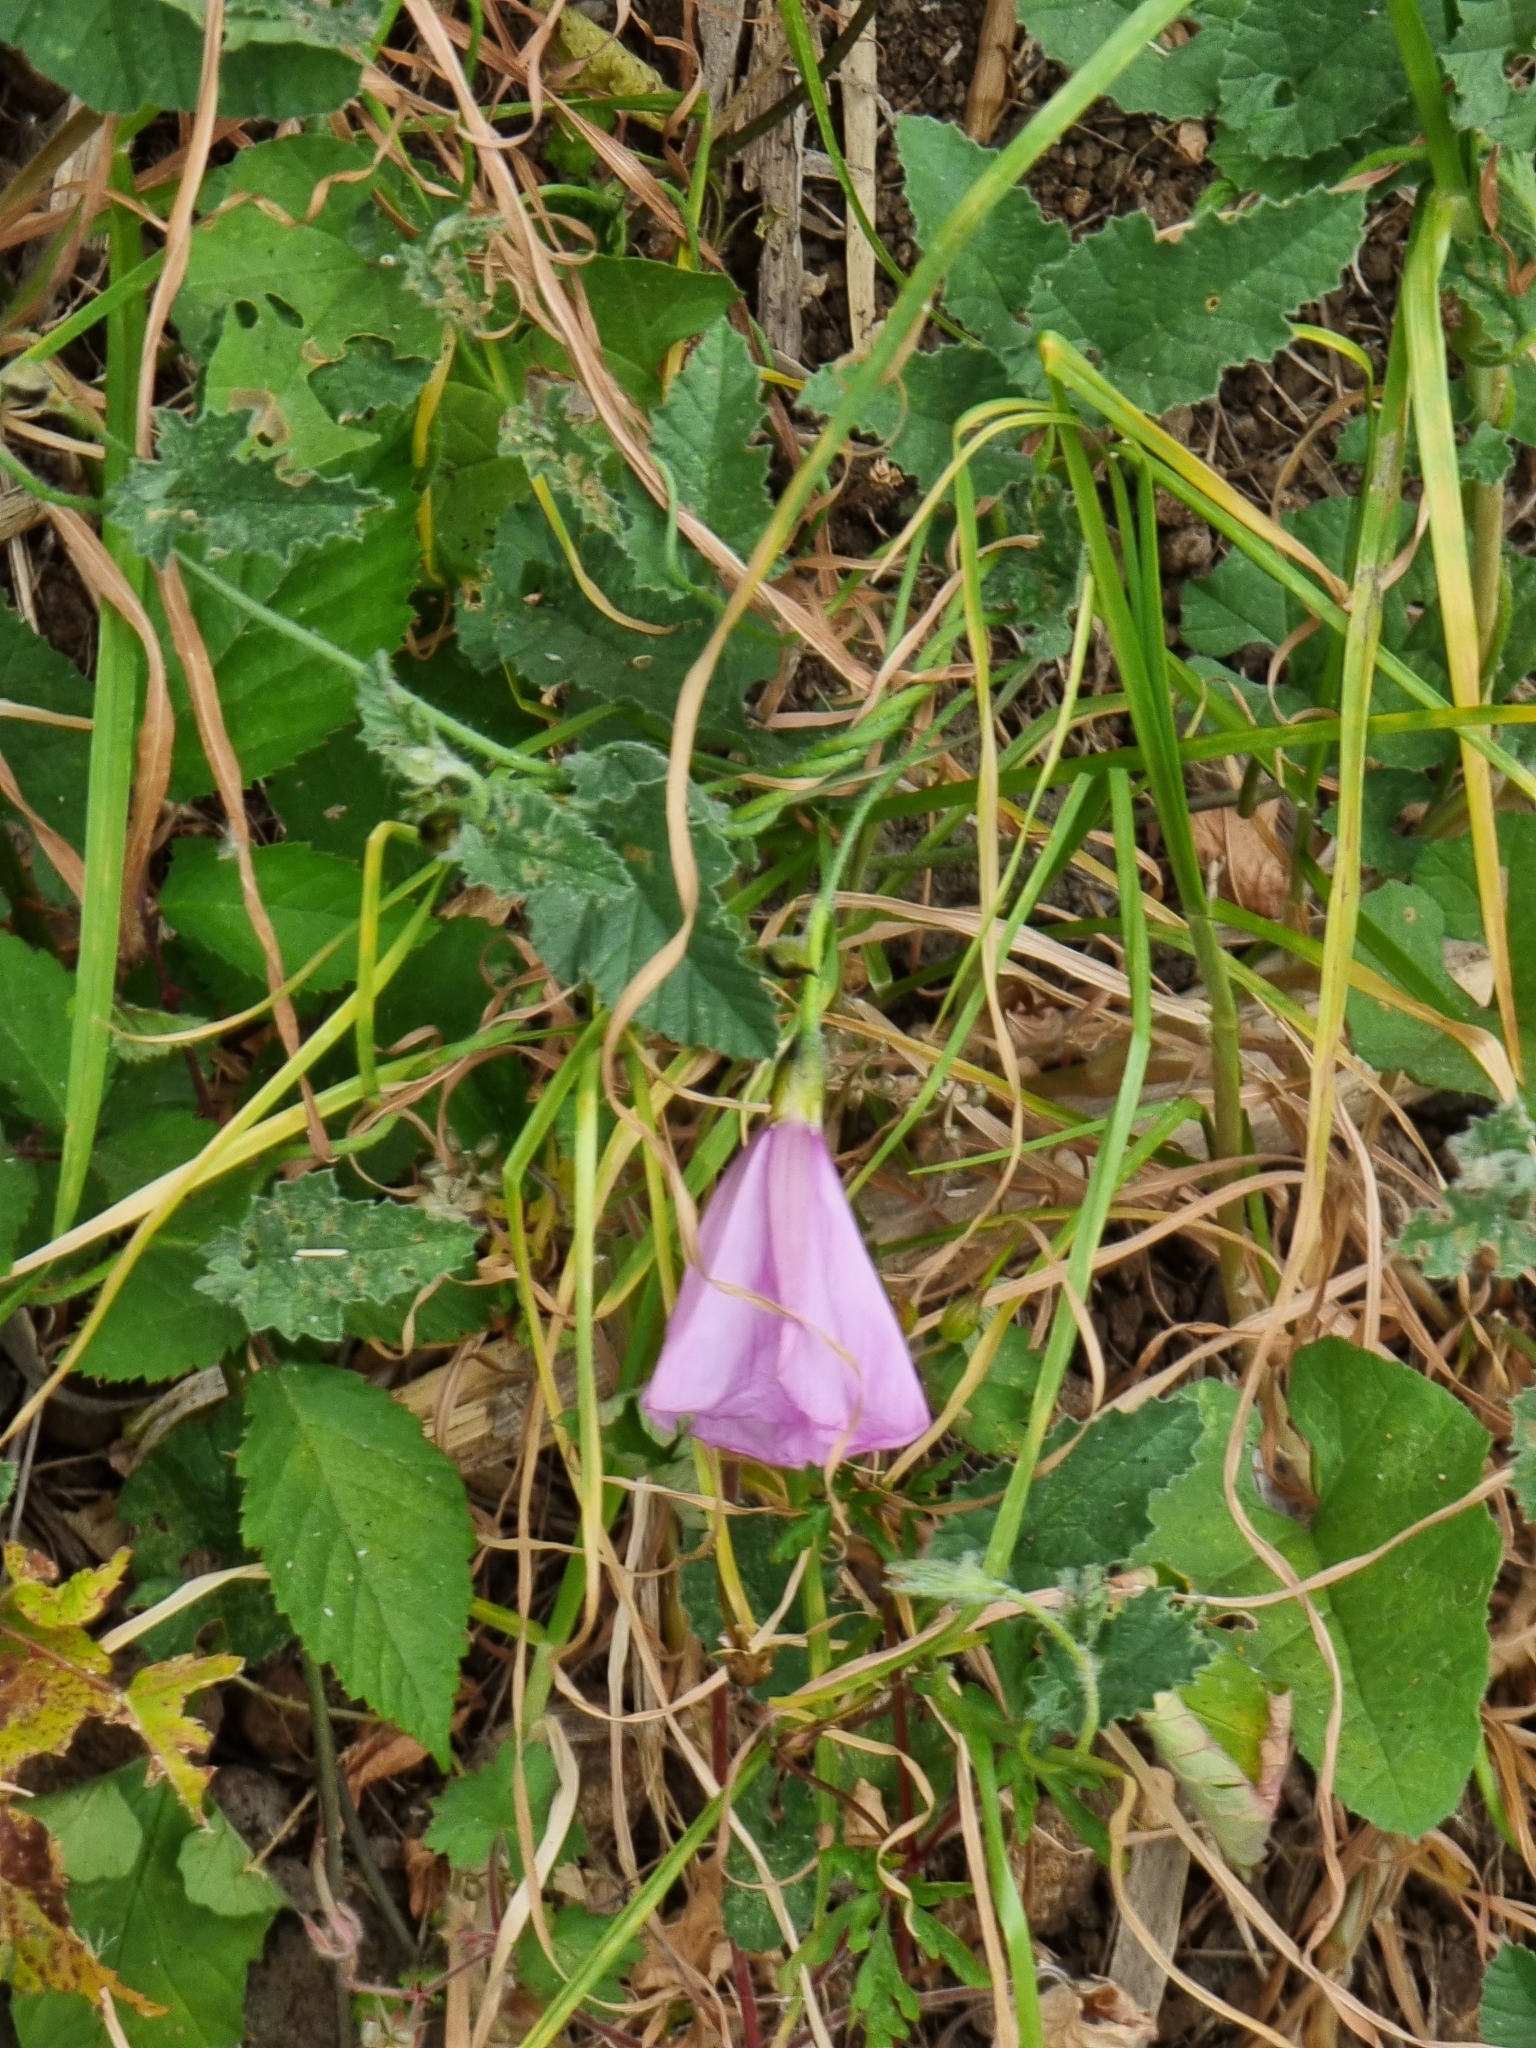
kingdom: Plantae
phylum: Tracheophyta
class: Magnoliopsida
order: Solanales
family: Convolvulaceae
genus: Convolvulus
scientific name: Convolvulus althaeoides
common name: Mallow bindweed
